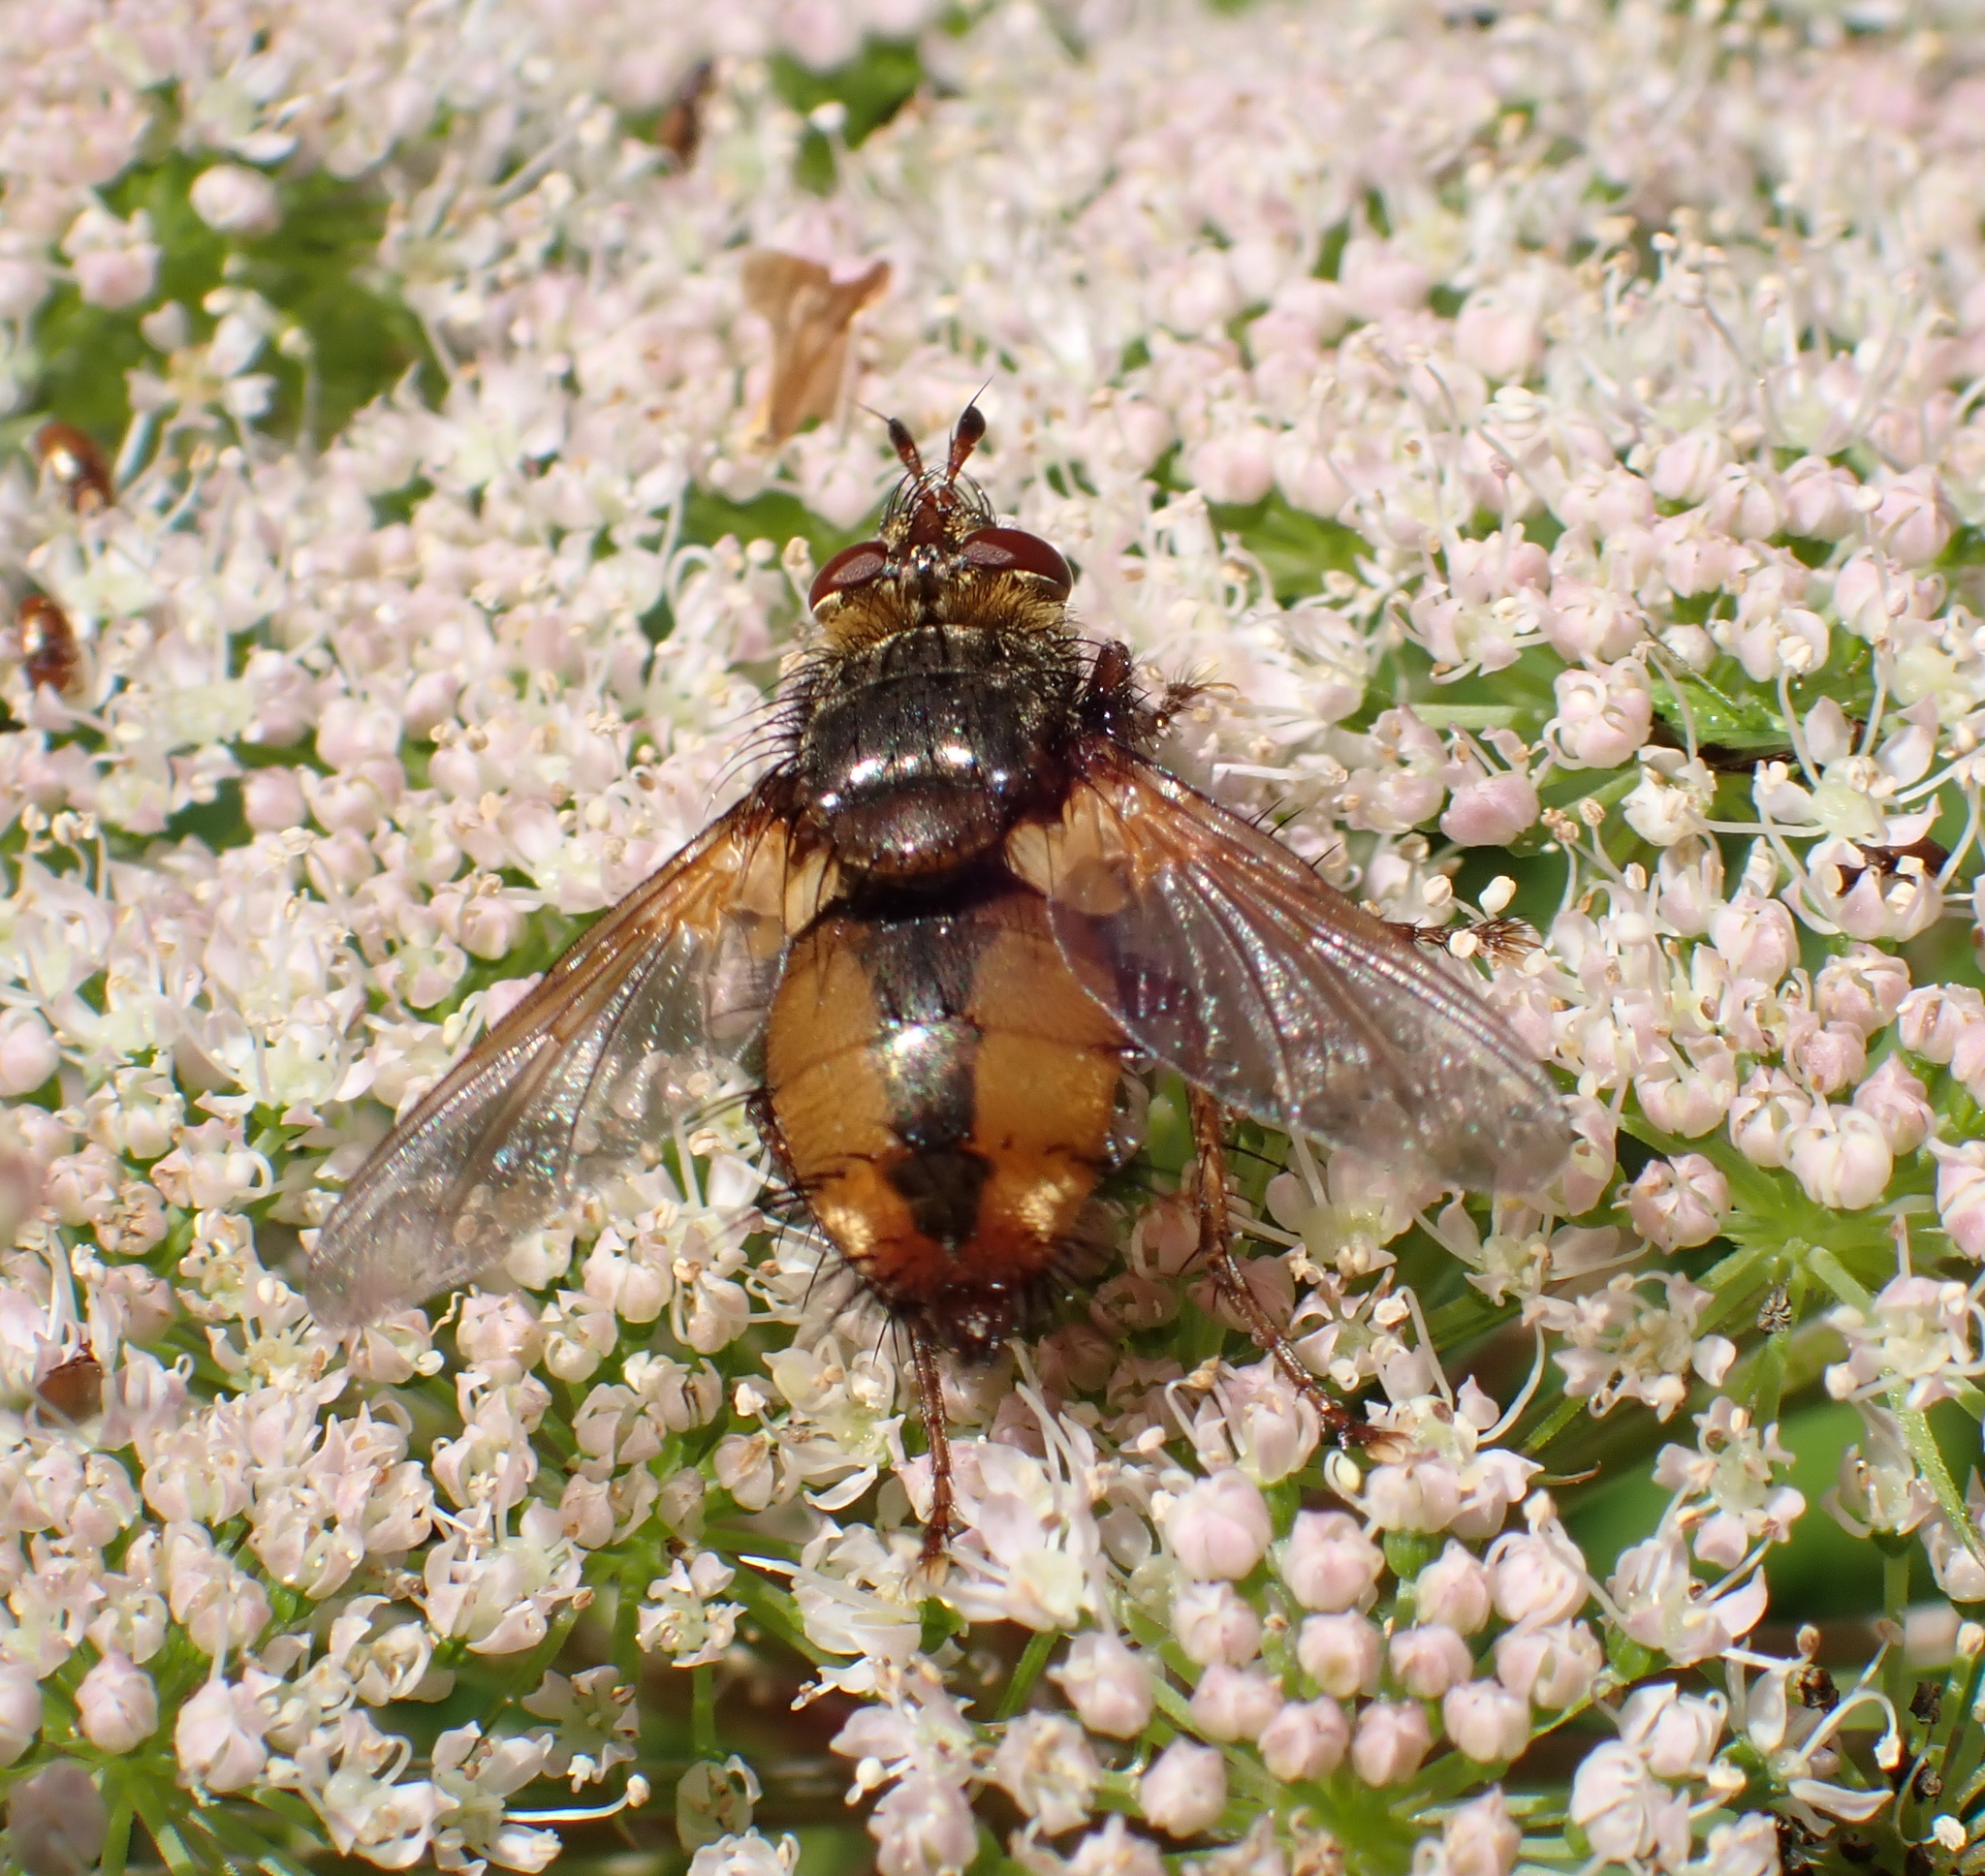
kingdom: Animalia
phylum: Arthropoda
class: Insecta
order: Diptera
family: Tachinidae
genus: Tachina
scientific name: Tachina fera
